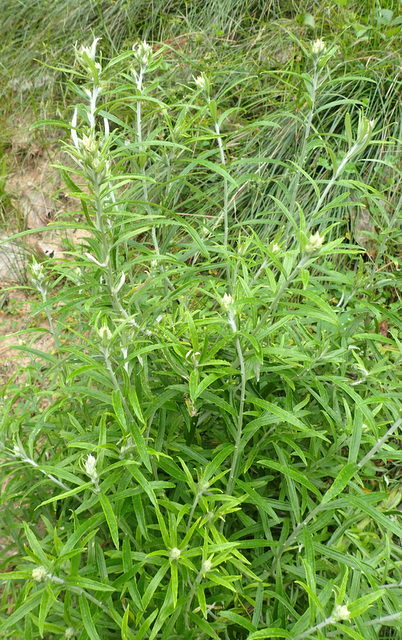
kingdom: Plantae
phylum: Tracheophyta
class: Magnoliopsida
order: Asterales
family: Asteraceae
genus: Pseudognaphalium
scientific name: Pseudognaphalium obtusifolium
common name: Eastern rabbit-tobacco
